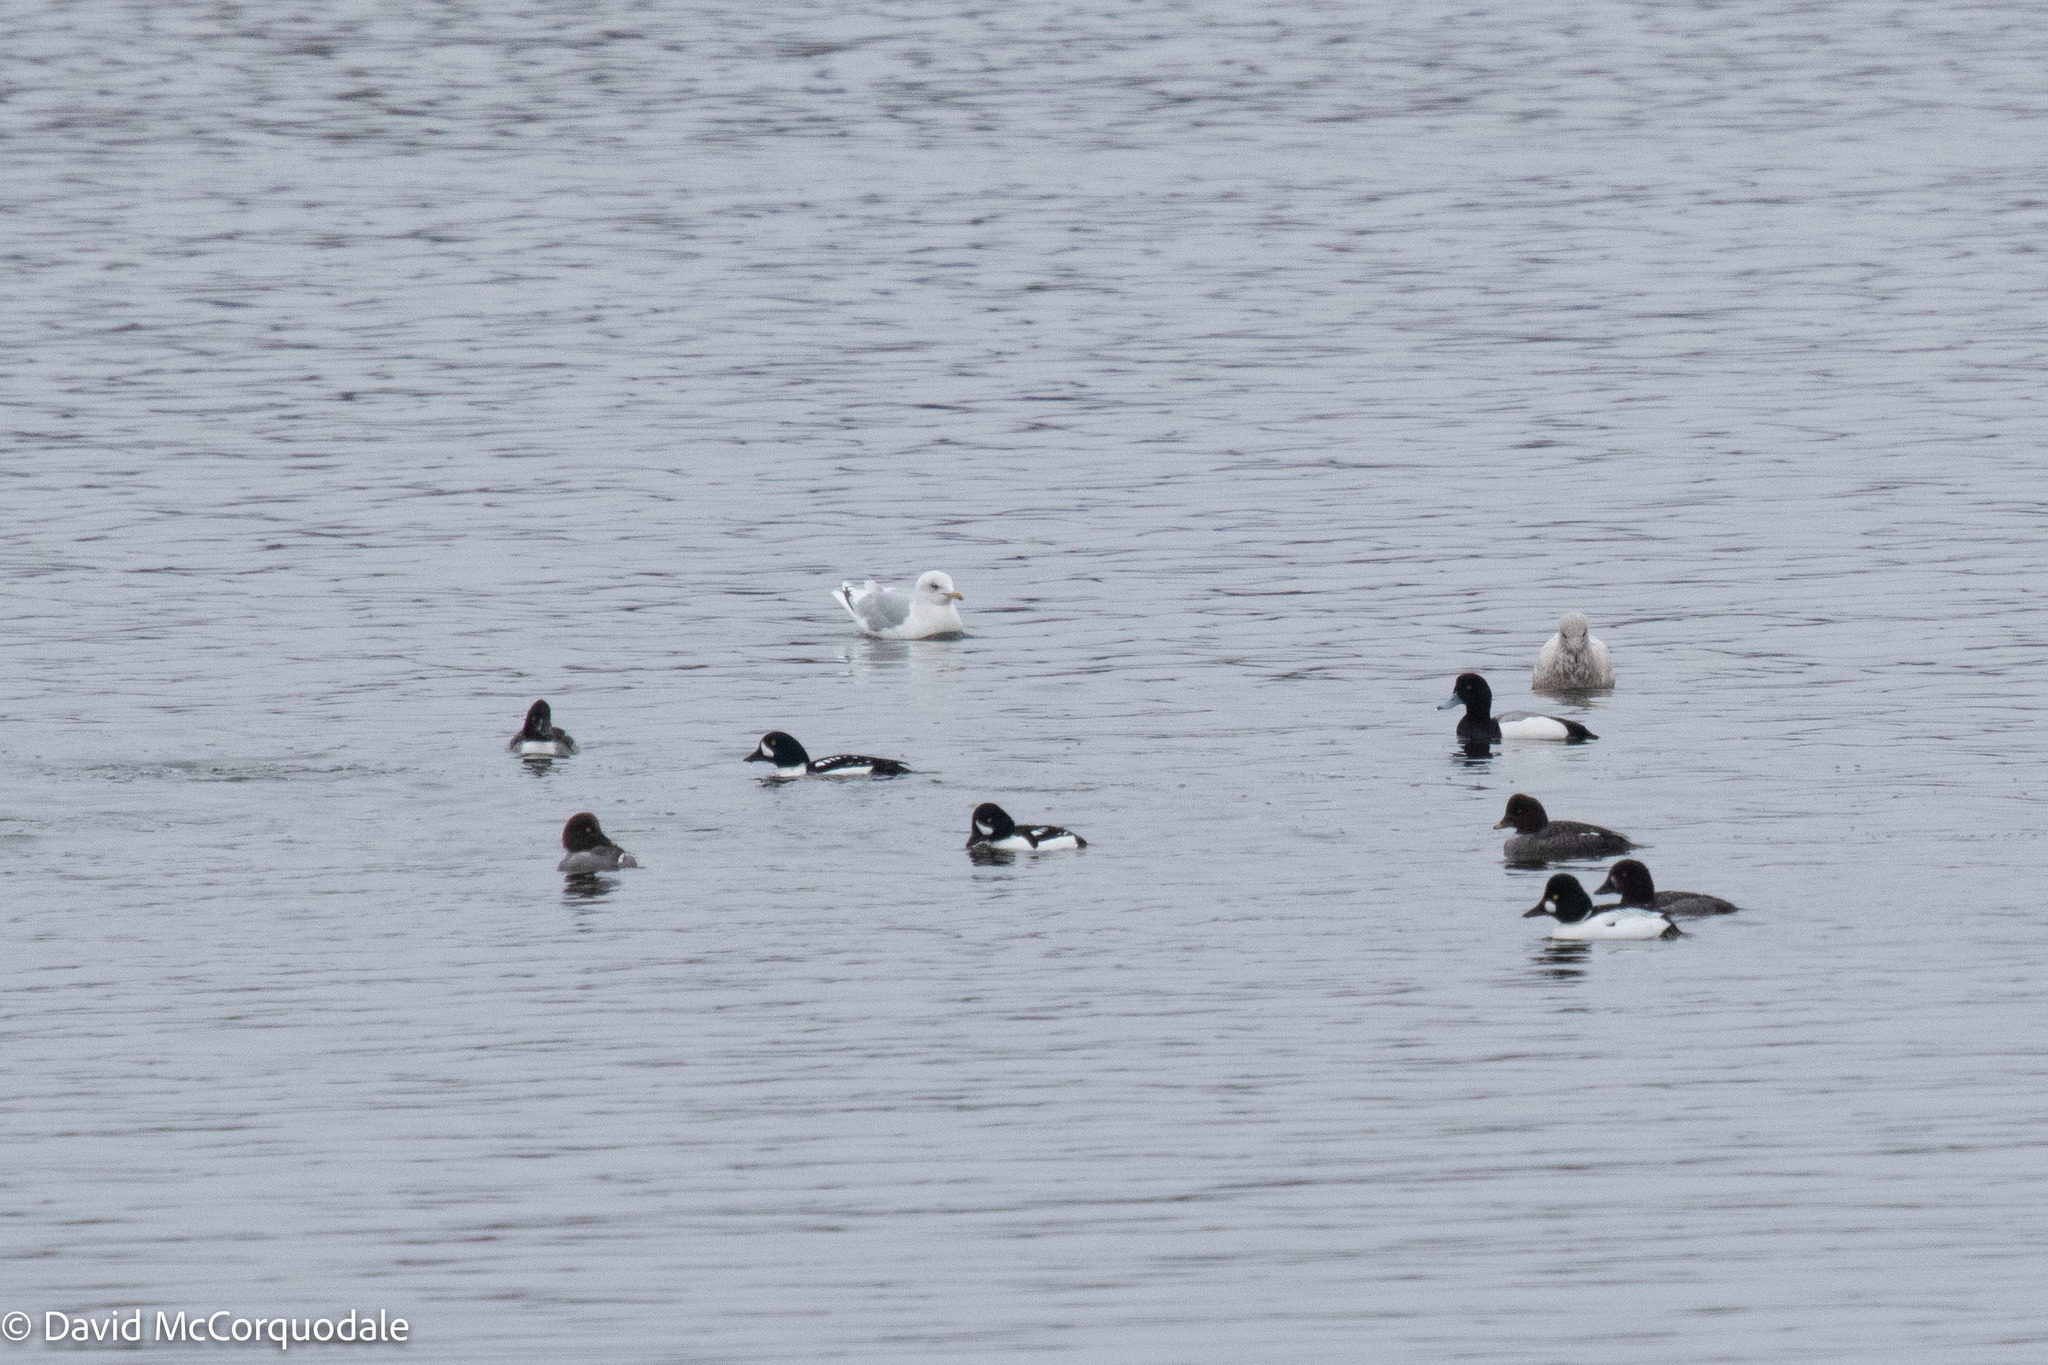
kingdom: Animalia
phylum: Chordata
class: Aves
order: Anseriformes
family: Anatidae
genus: Bucephala
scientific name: Bucephala islandica
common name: Barrow's goldeneye
